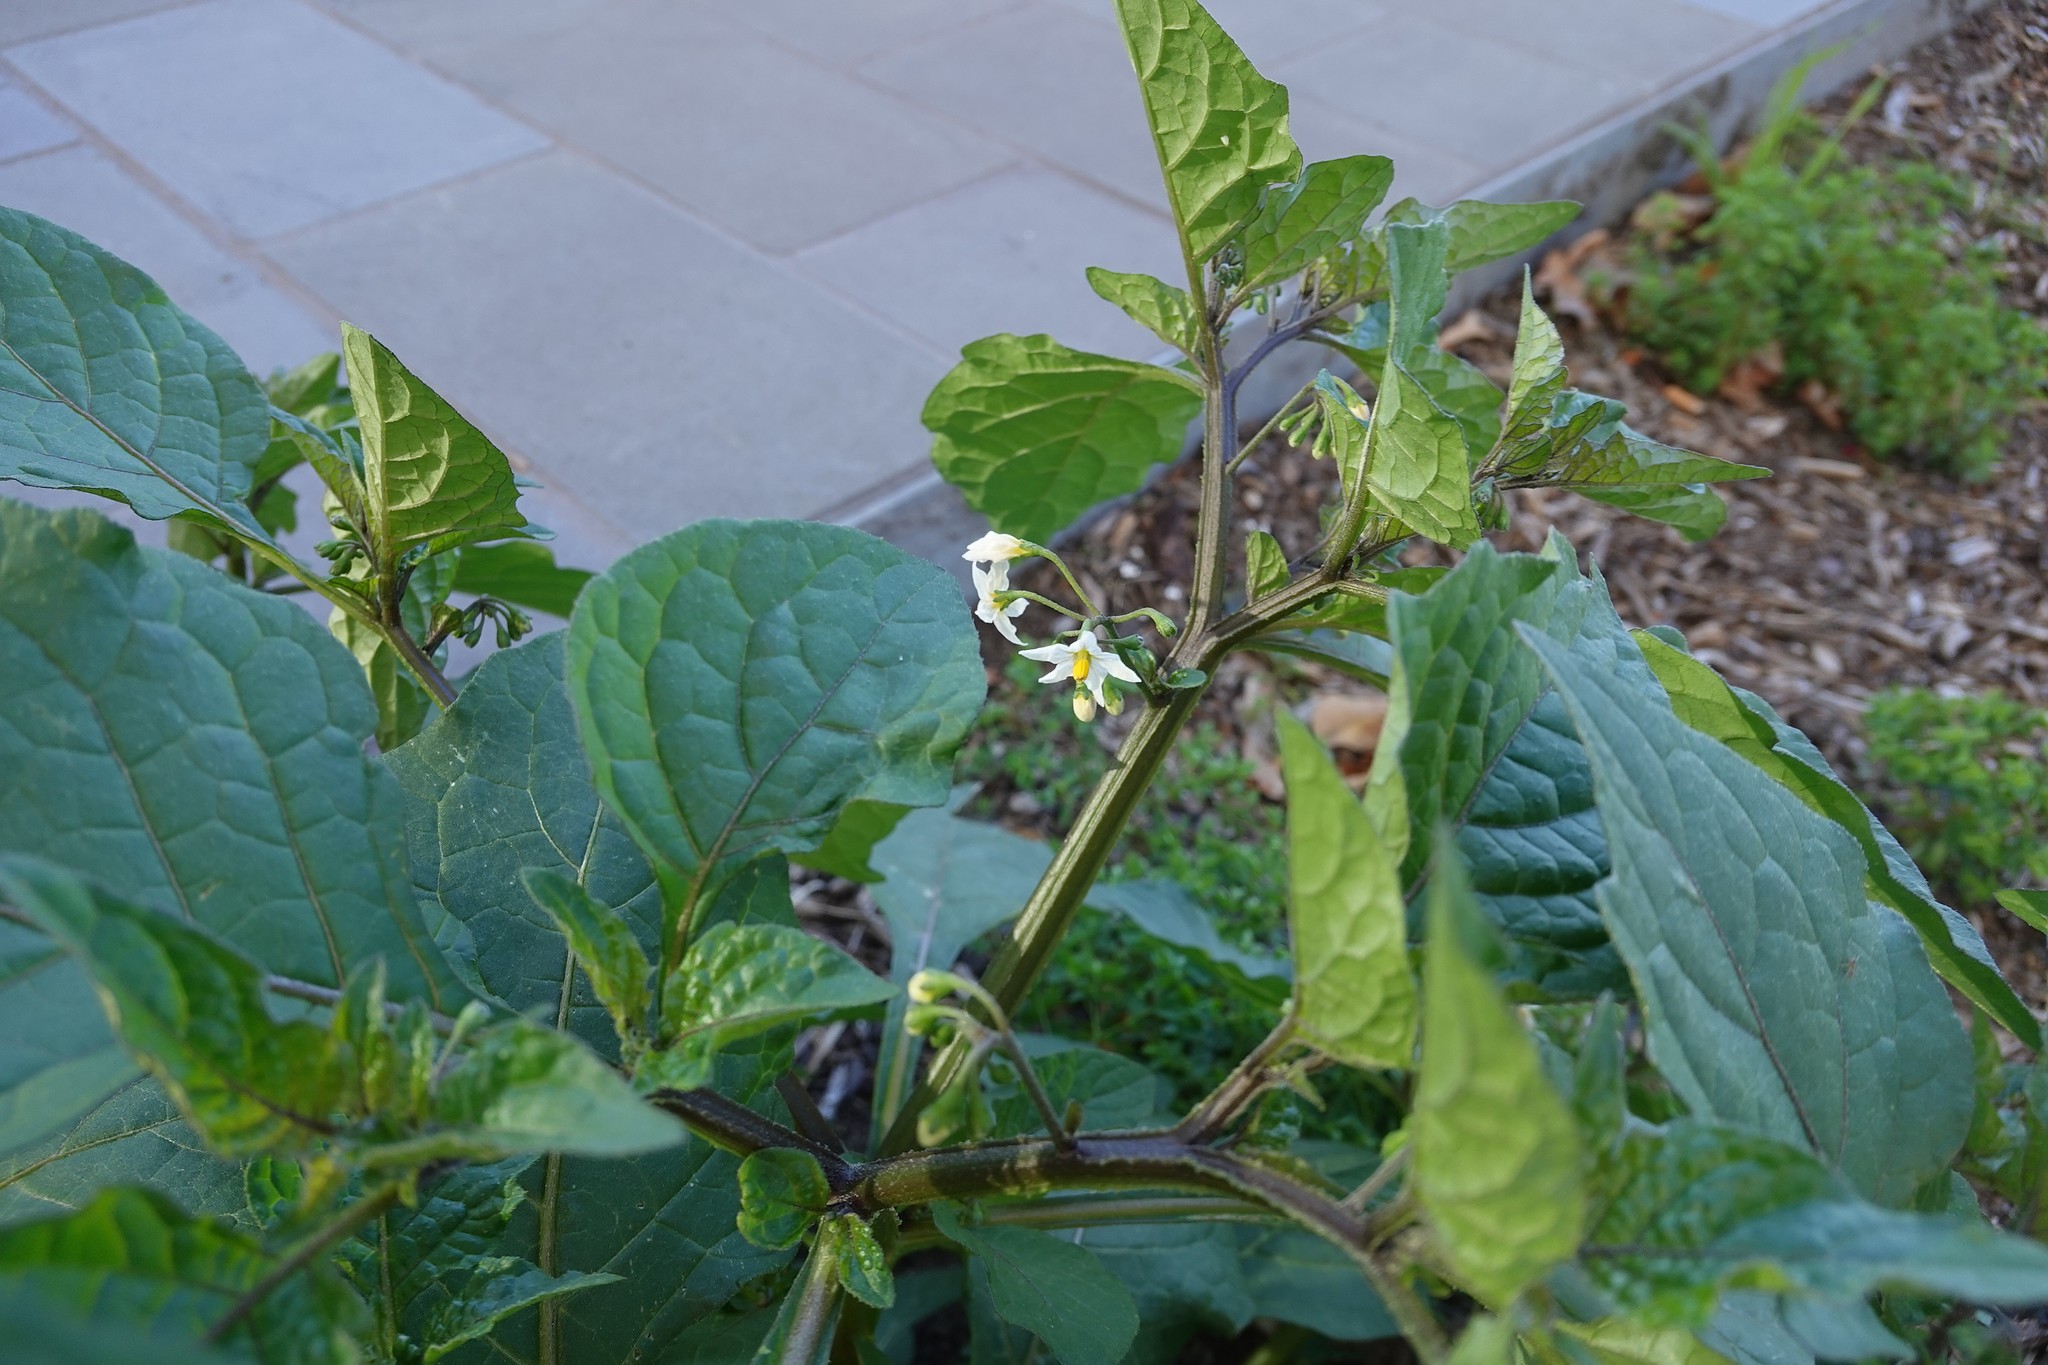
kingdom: Plantae
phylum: Tracheophyta
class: Magnoliopsida
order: Solanales
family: Solanaceae
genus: Solanum
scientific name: Solanum nigrum
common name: Black nightshade
